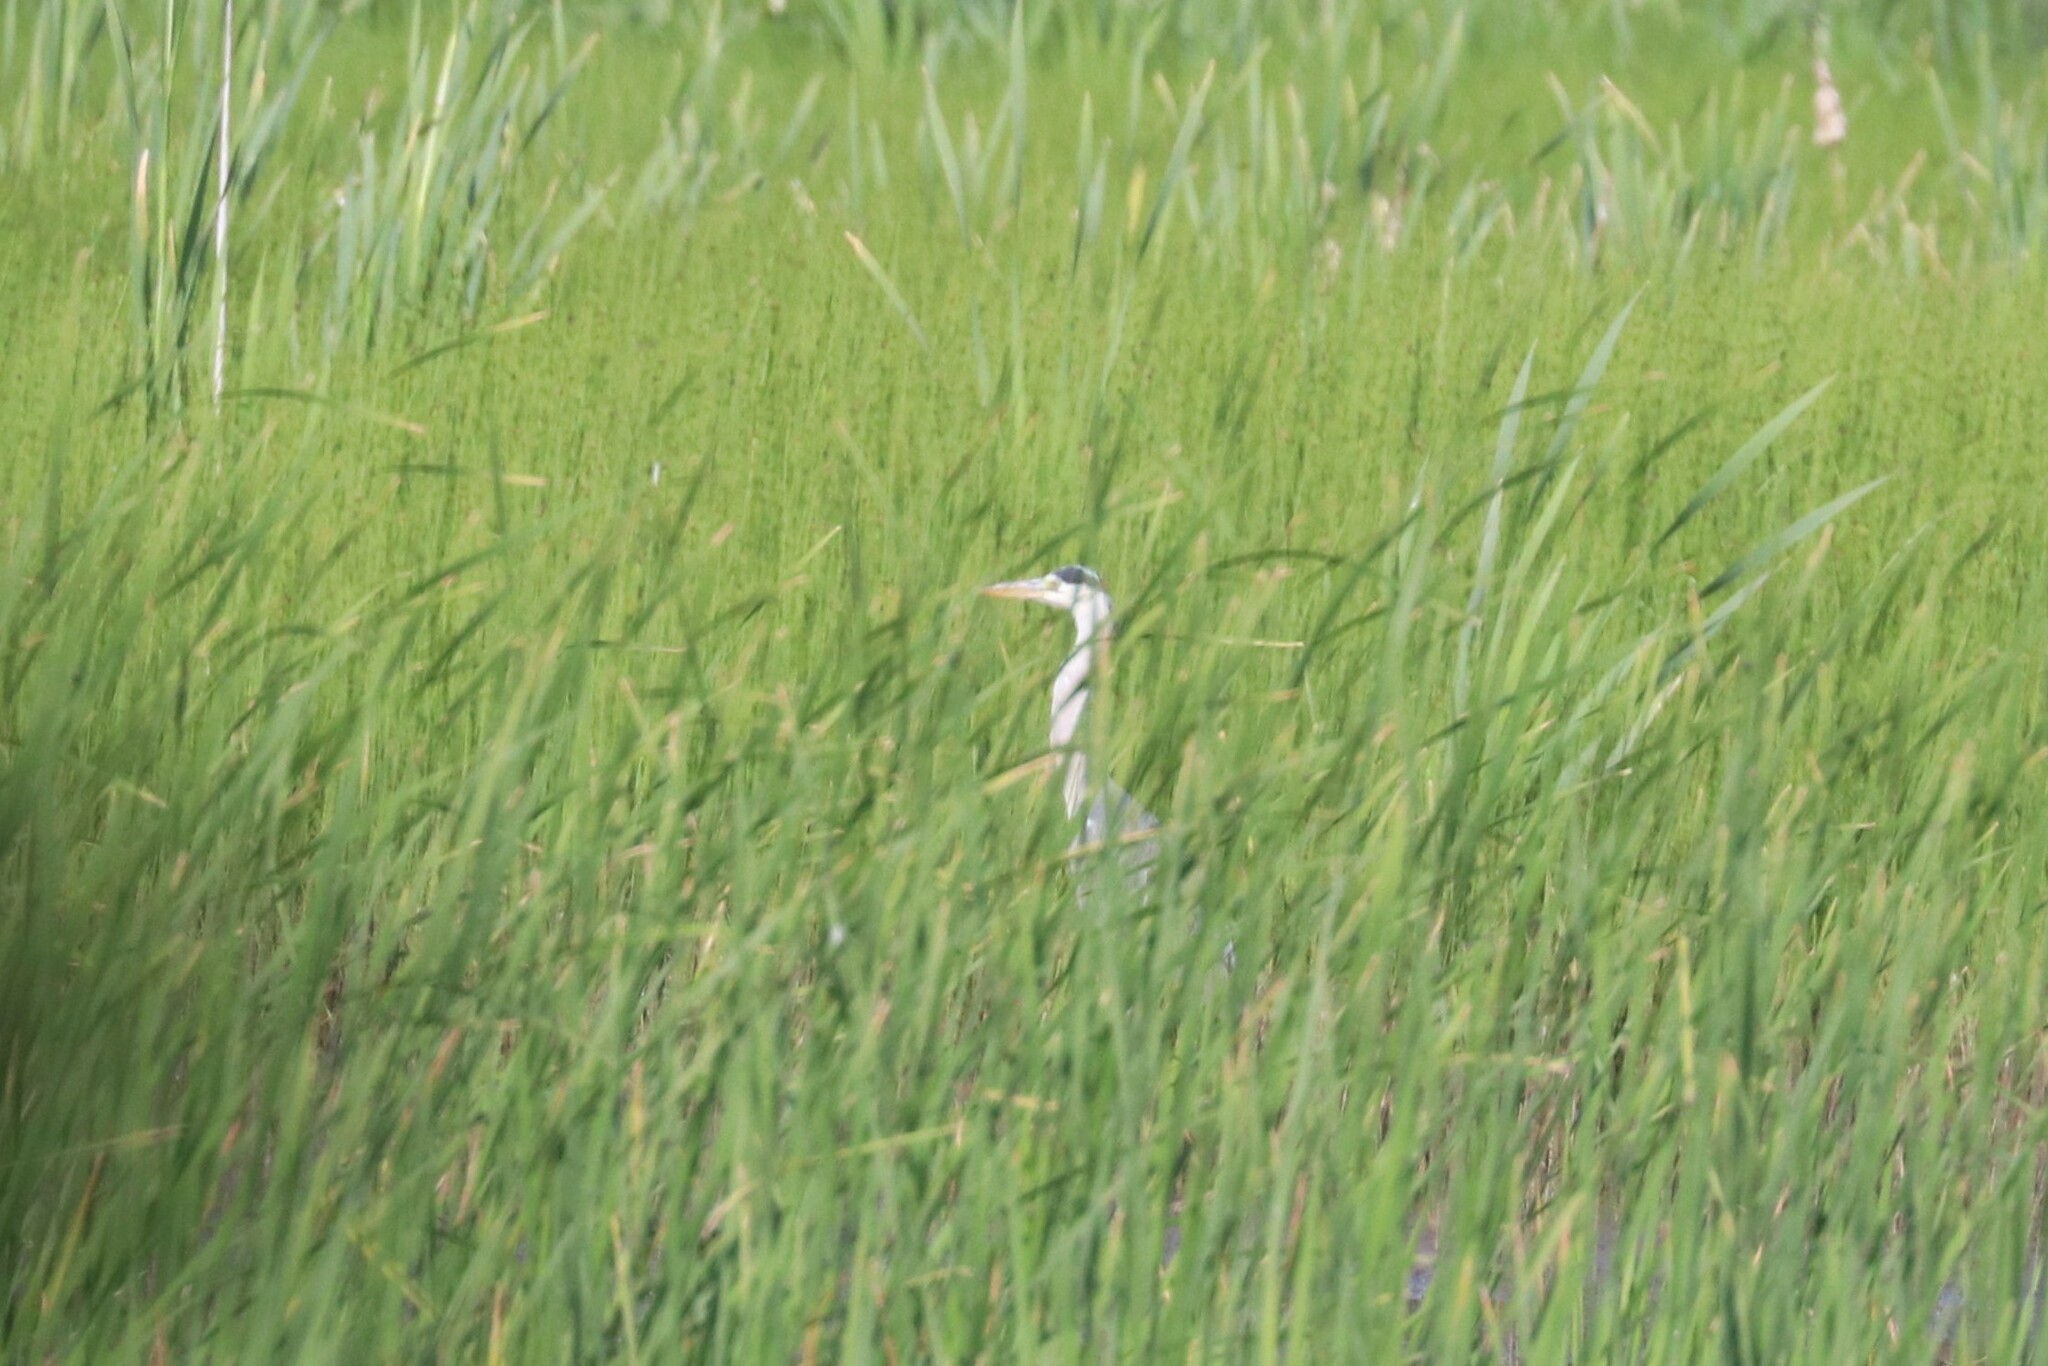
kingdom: Animalia
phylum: Chordata
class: Aves
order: Pelecaniformes
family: Ardeidae
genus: Ardea
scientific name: Ardea cinerea
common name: Grey heron
